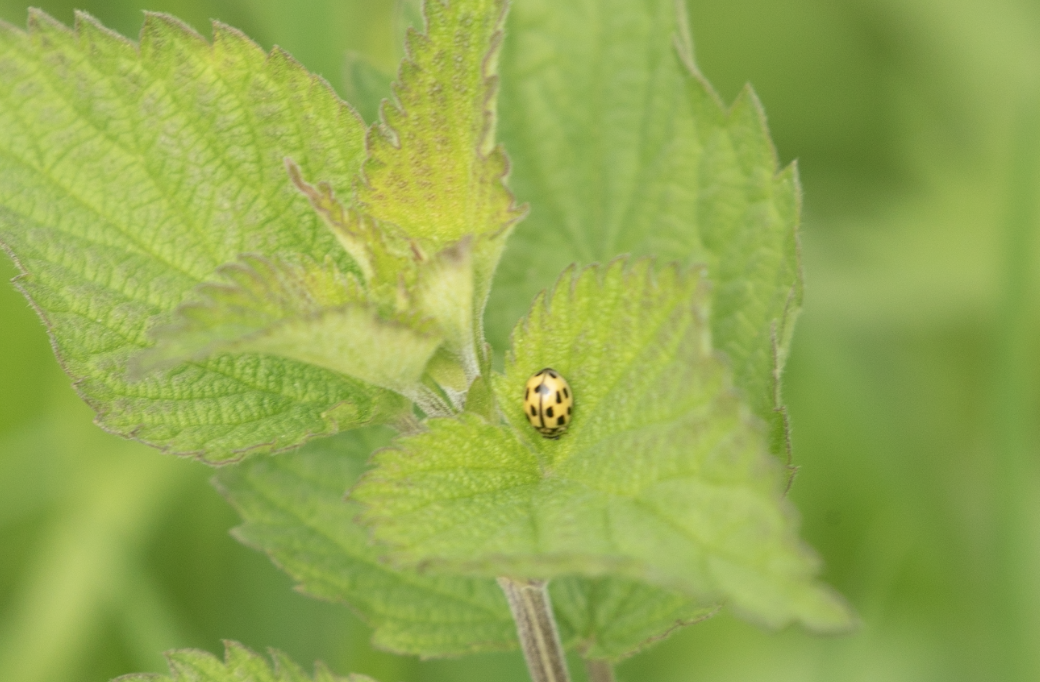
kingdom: Animalia
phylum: Arthropoda
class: Insecta
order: Coleoptera
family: Coccinellidae
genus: Propylaea
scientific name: Propylaea quatuordecimpunctata
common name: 14-spotted ladybird beetle
